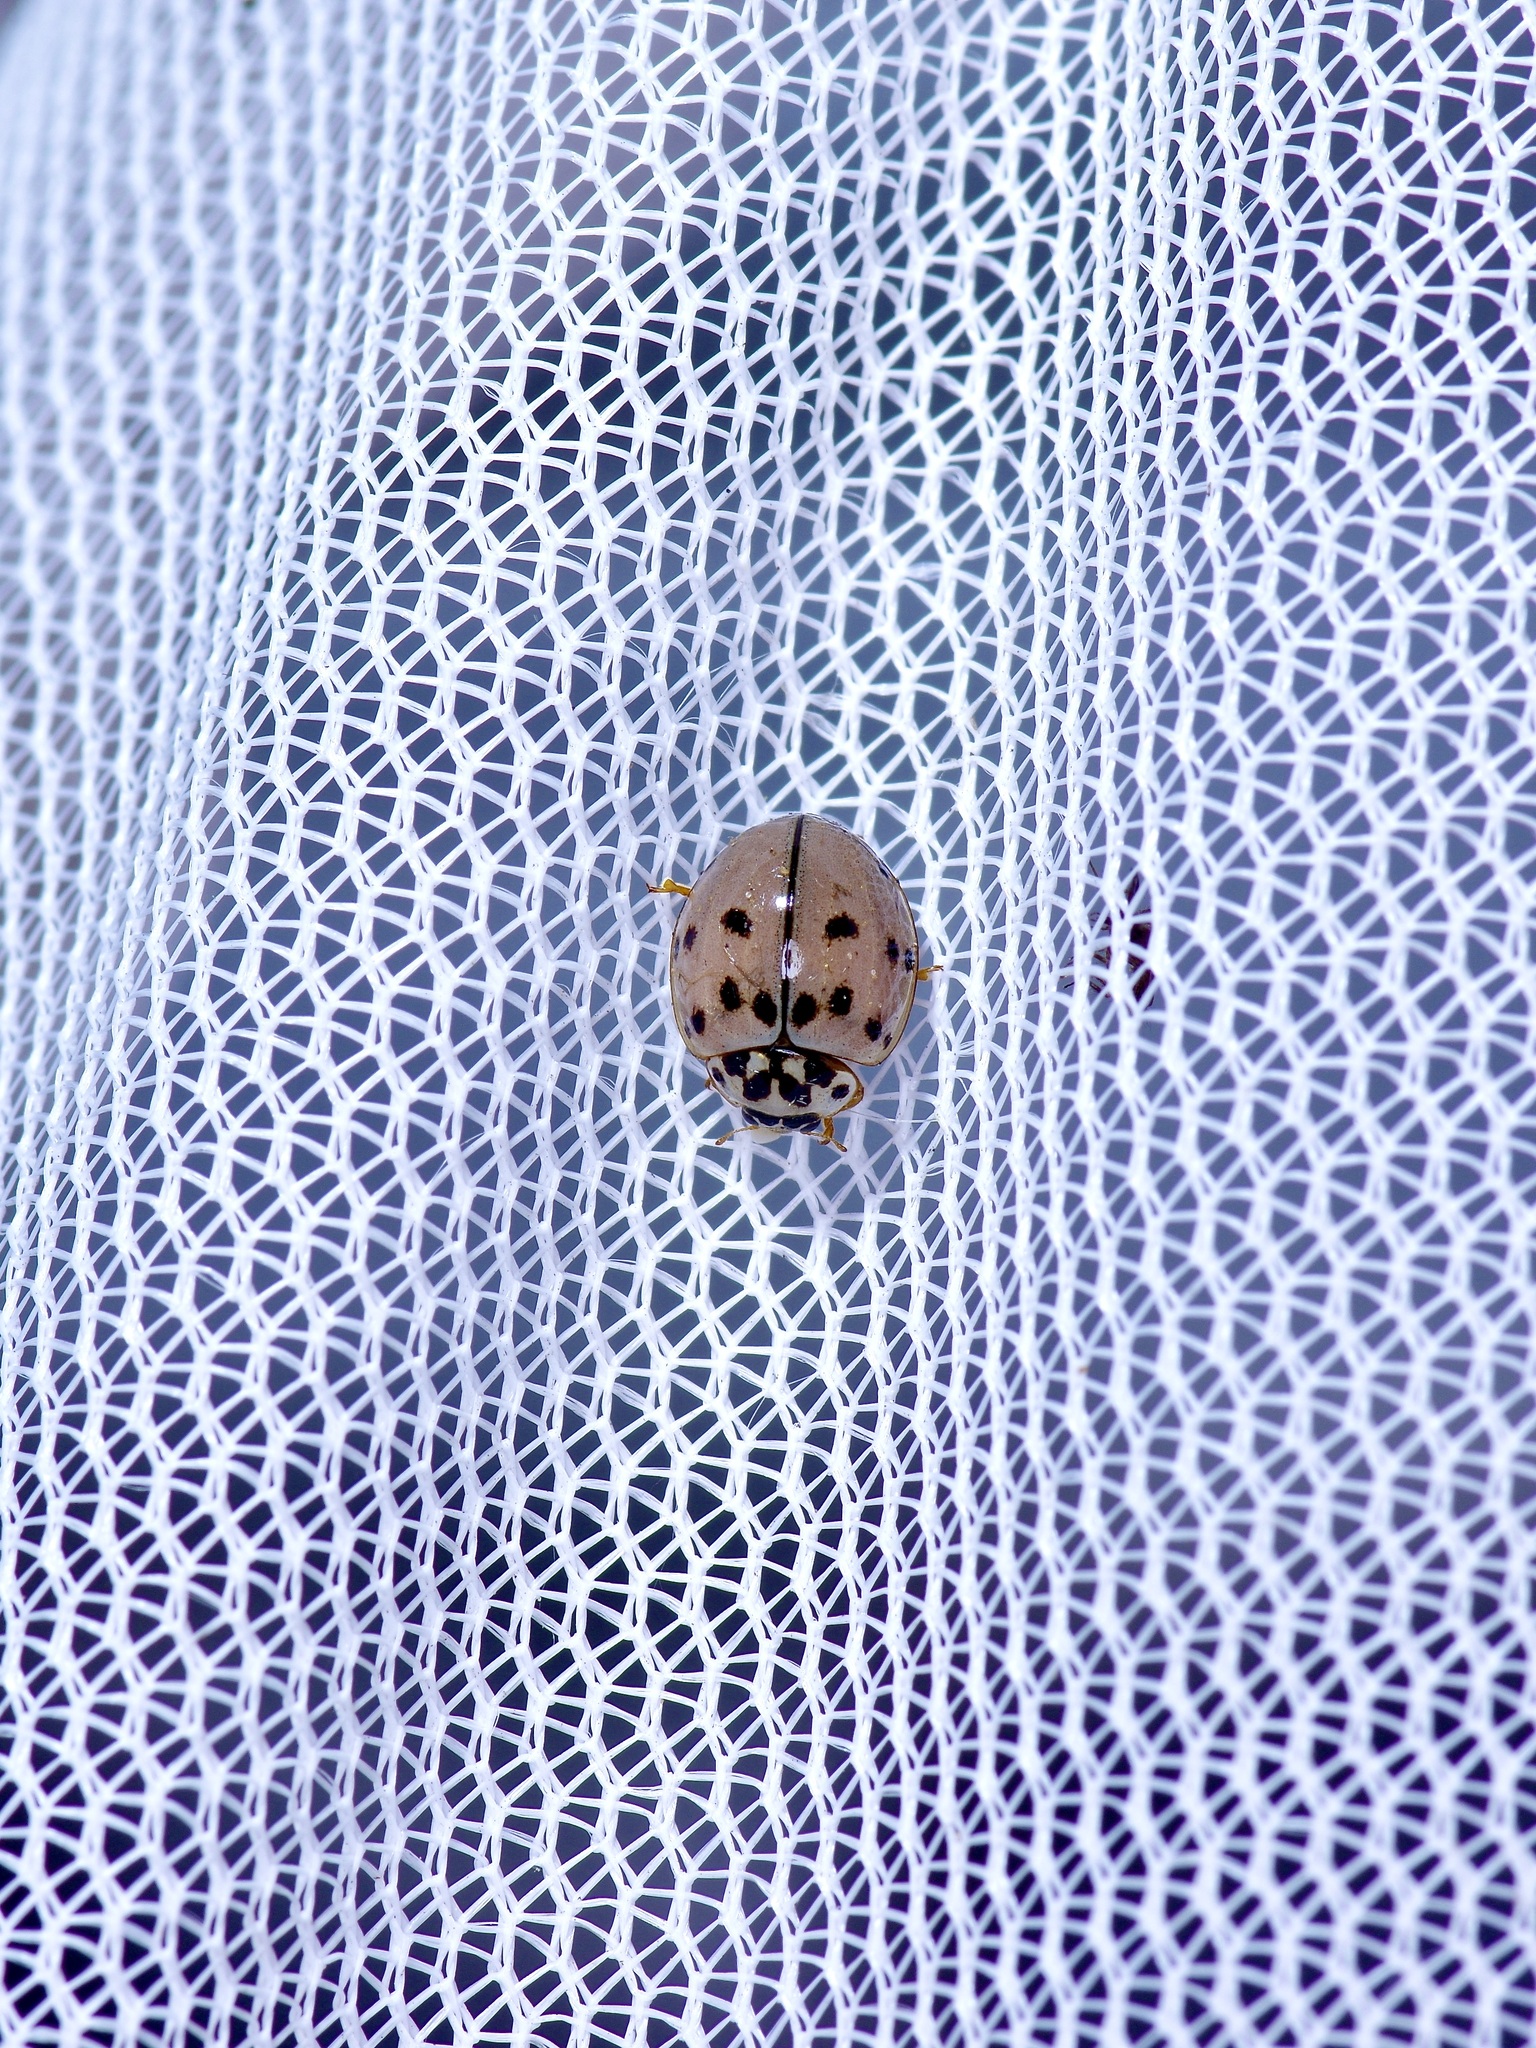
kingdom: Animalia
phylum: Arthropoda
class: Insecta
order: Coleoptera
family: Coccinellidae
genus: Olla
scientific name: Olla v-nigrum
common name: Ashy gray lady beetle
